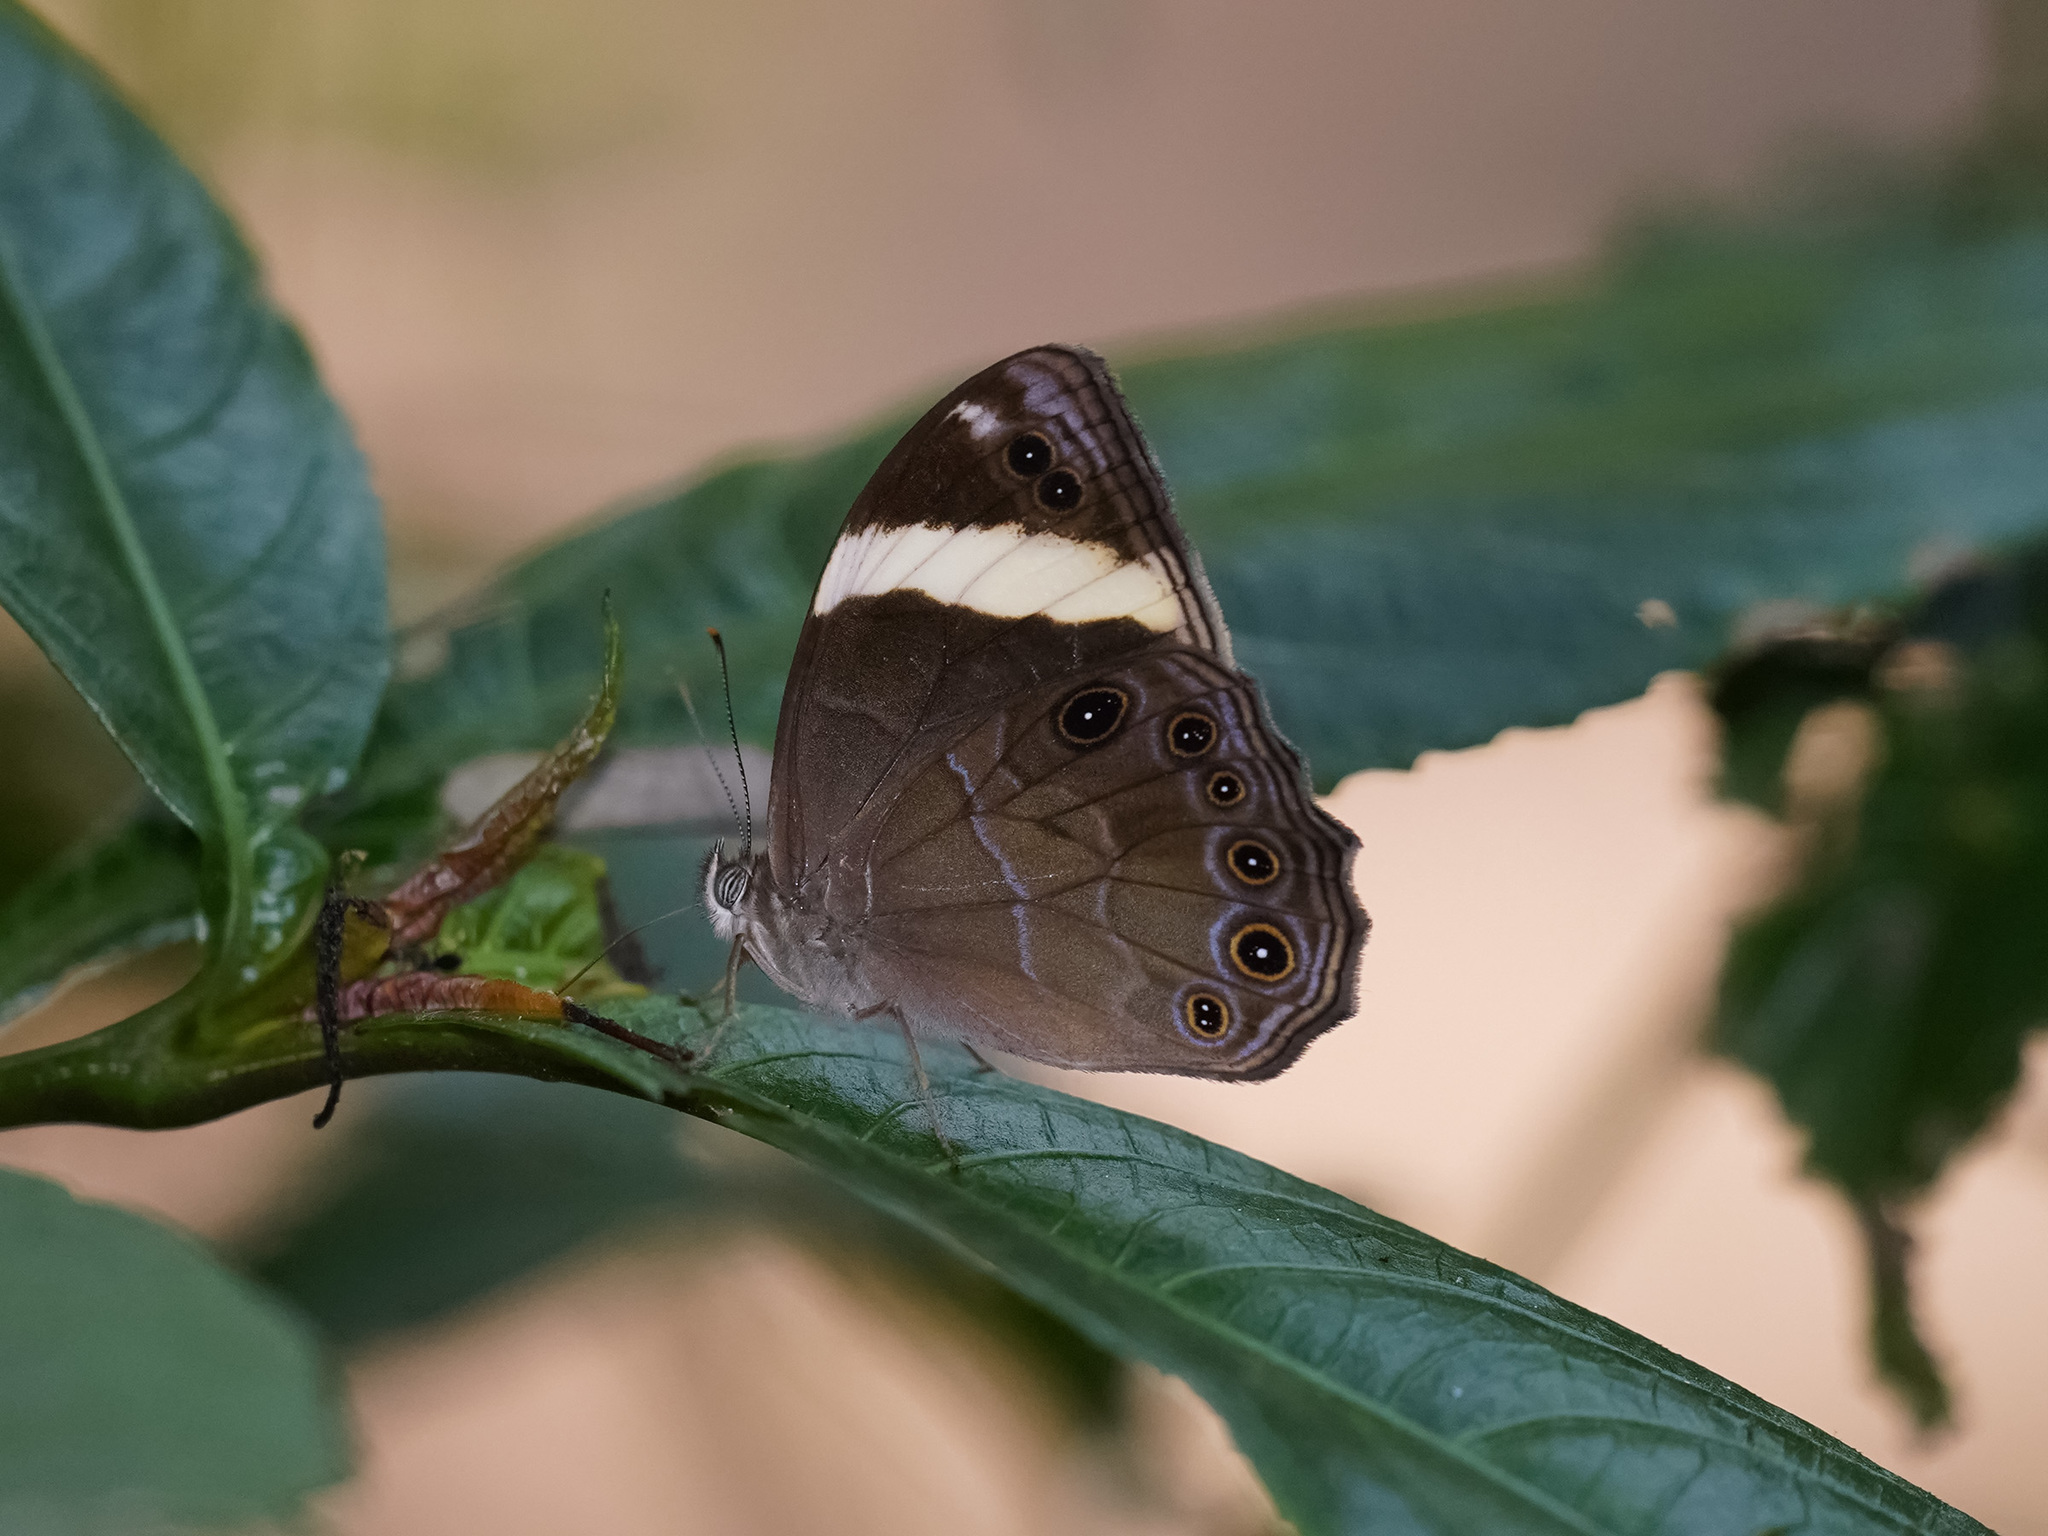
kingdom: Animalia
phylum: Arthropoda
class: Insecta
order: Lepidoptera
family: Nymphalidae
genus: Lethe
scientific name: Lethe verma
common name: Straight-banded treebrown
